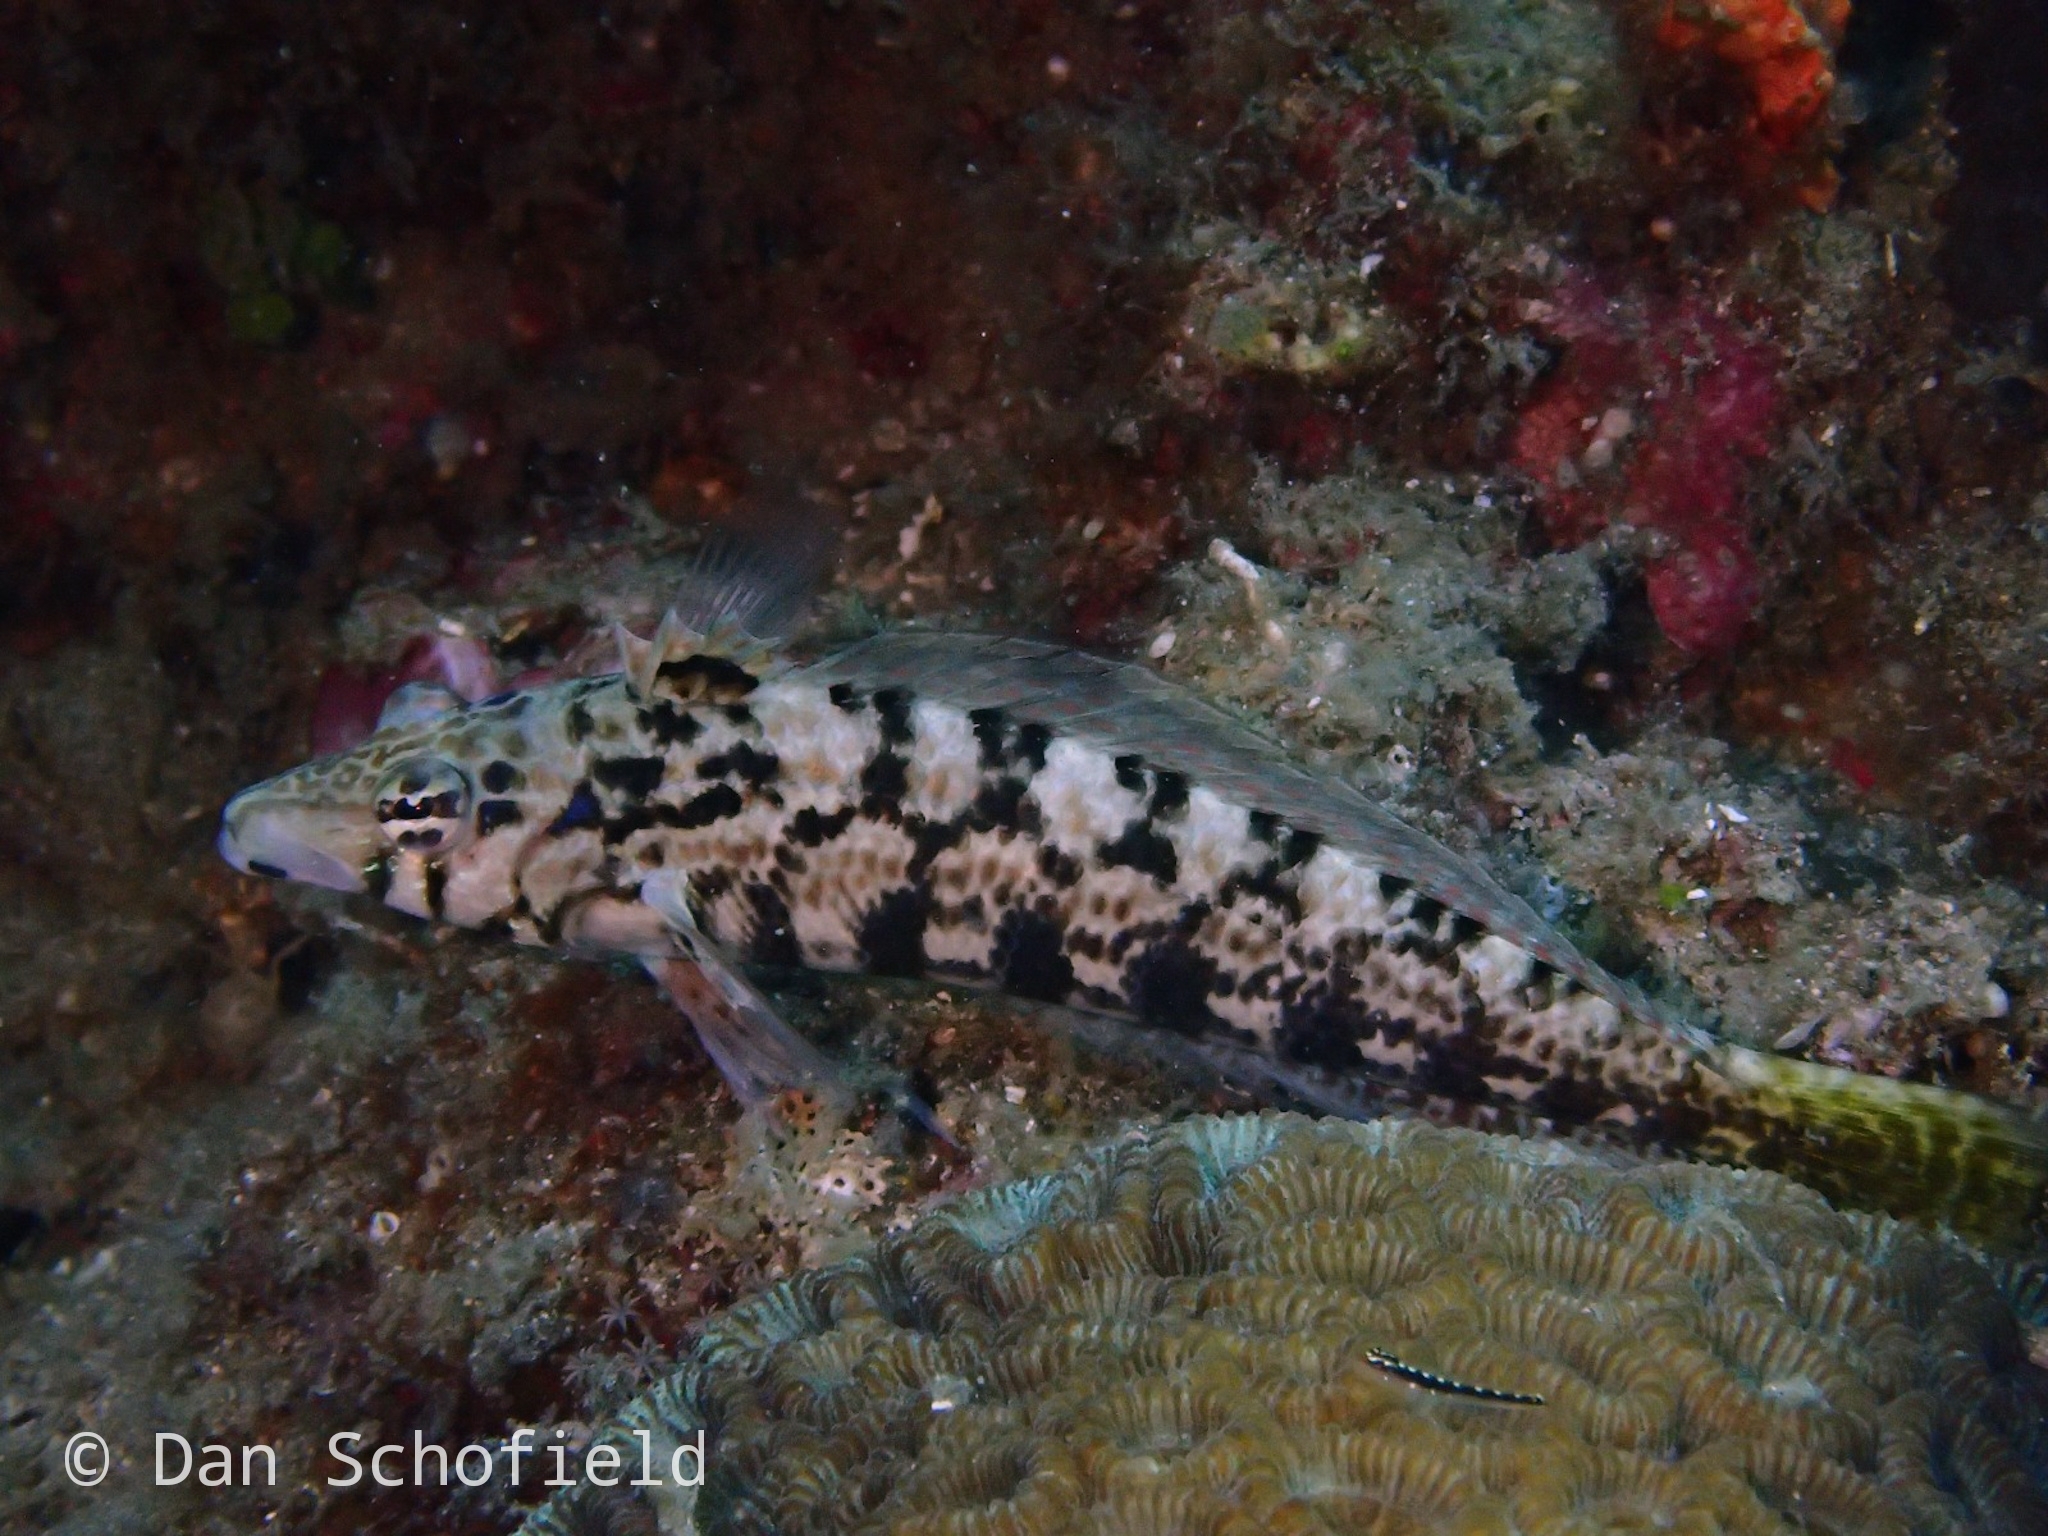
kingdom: Animalia
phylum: Chordata
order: Perciformes
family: Pinguipedidae
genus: Parapercis
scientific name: Parapercis cylindrica
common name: Cylindrical sandperch
